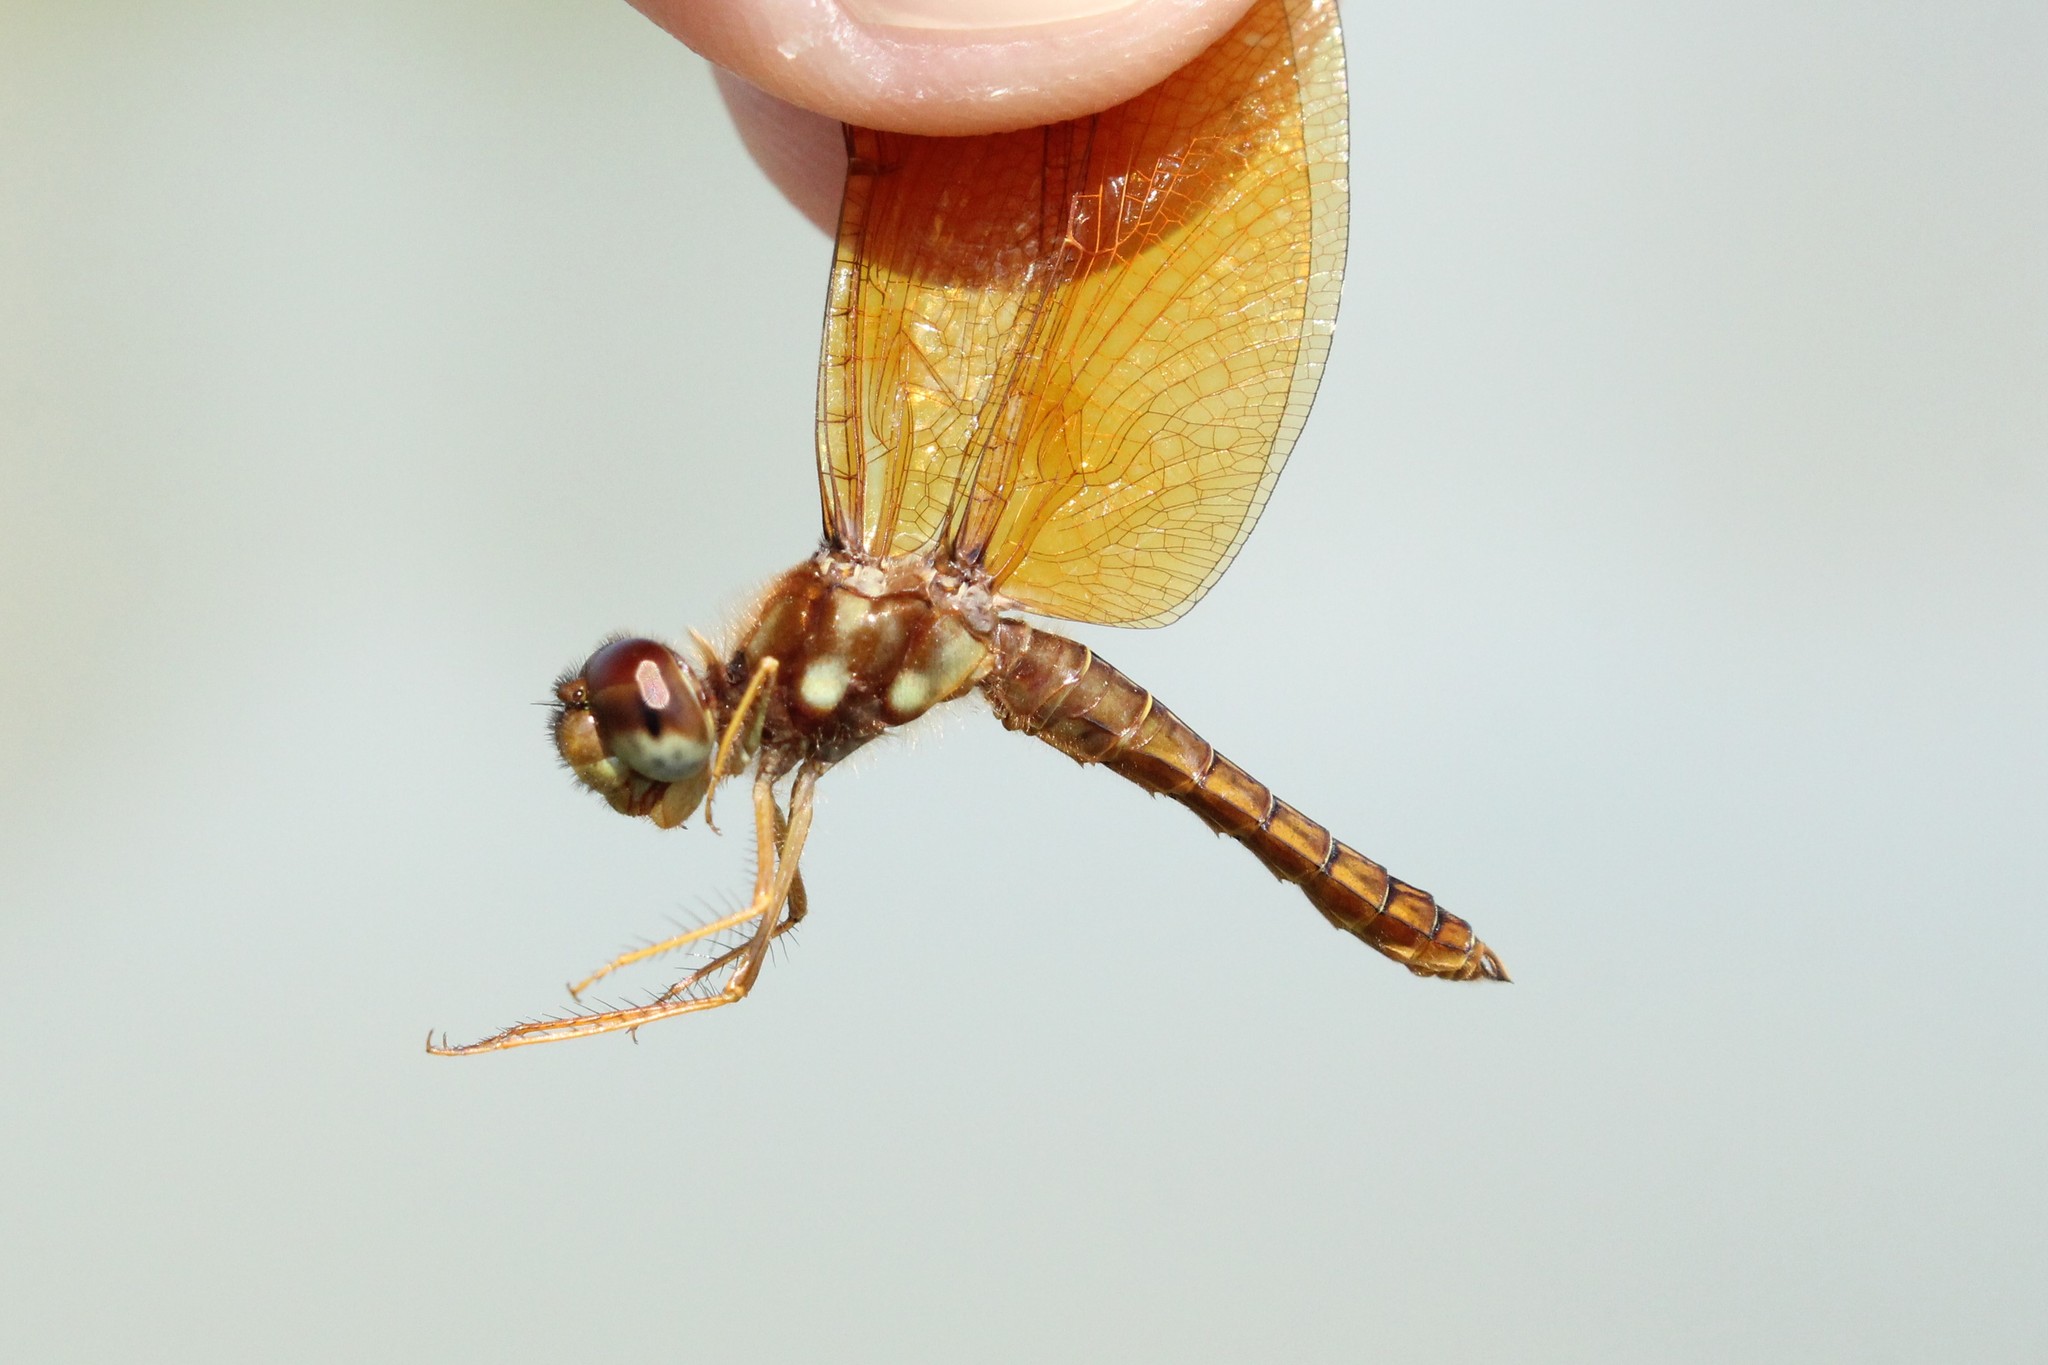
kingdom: Animalia
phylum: Arthropoda
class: Insecta
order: Odonata
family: Libellulidae
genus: Perithemis
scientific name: Perithemis tenera
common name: Eastern amberwing
